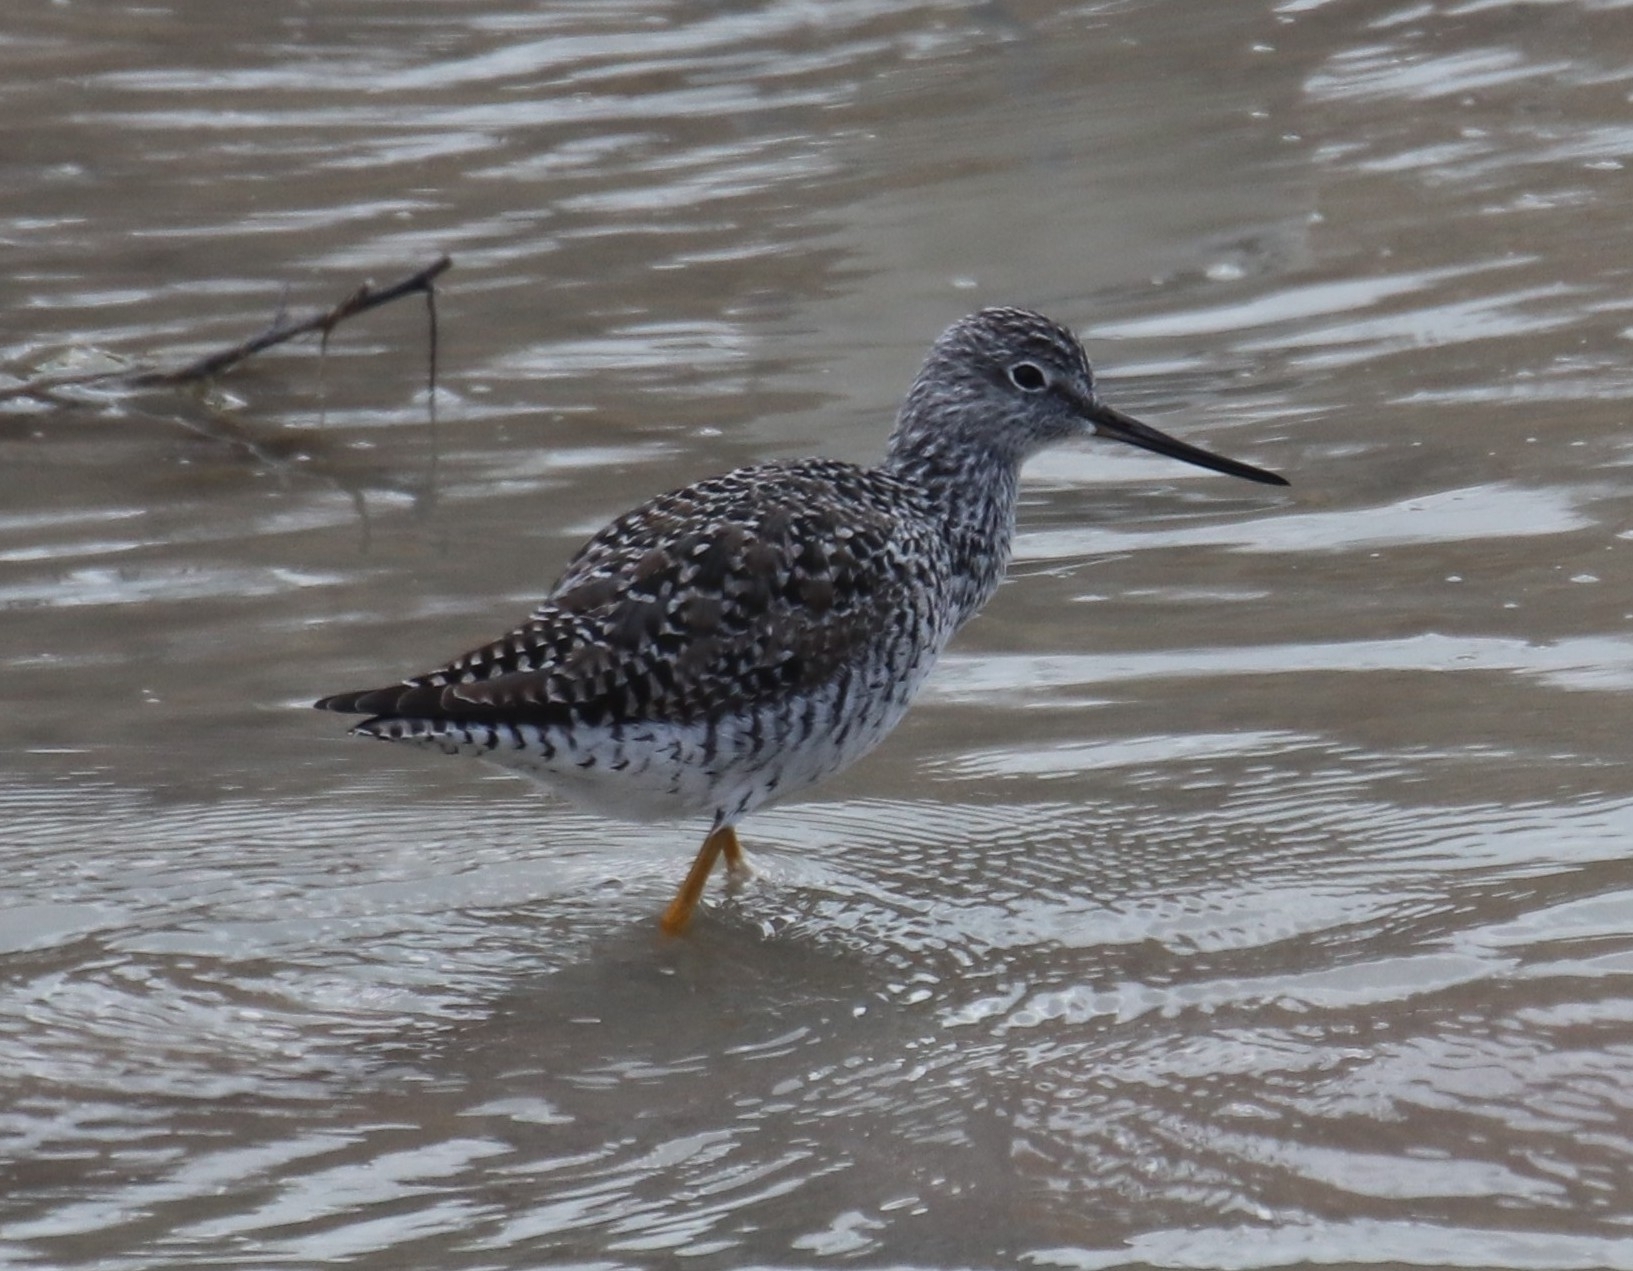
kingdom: Animalia
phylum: Chordata
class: Aves
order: Charadriiformes
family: Scolopacidae
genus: Tringa
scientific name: Tringa melanoleuca
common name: Greater yellowlegs
